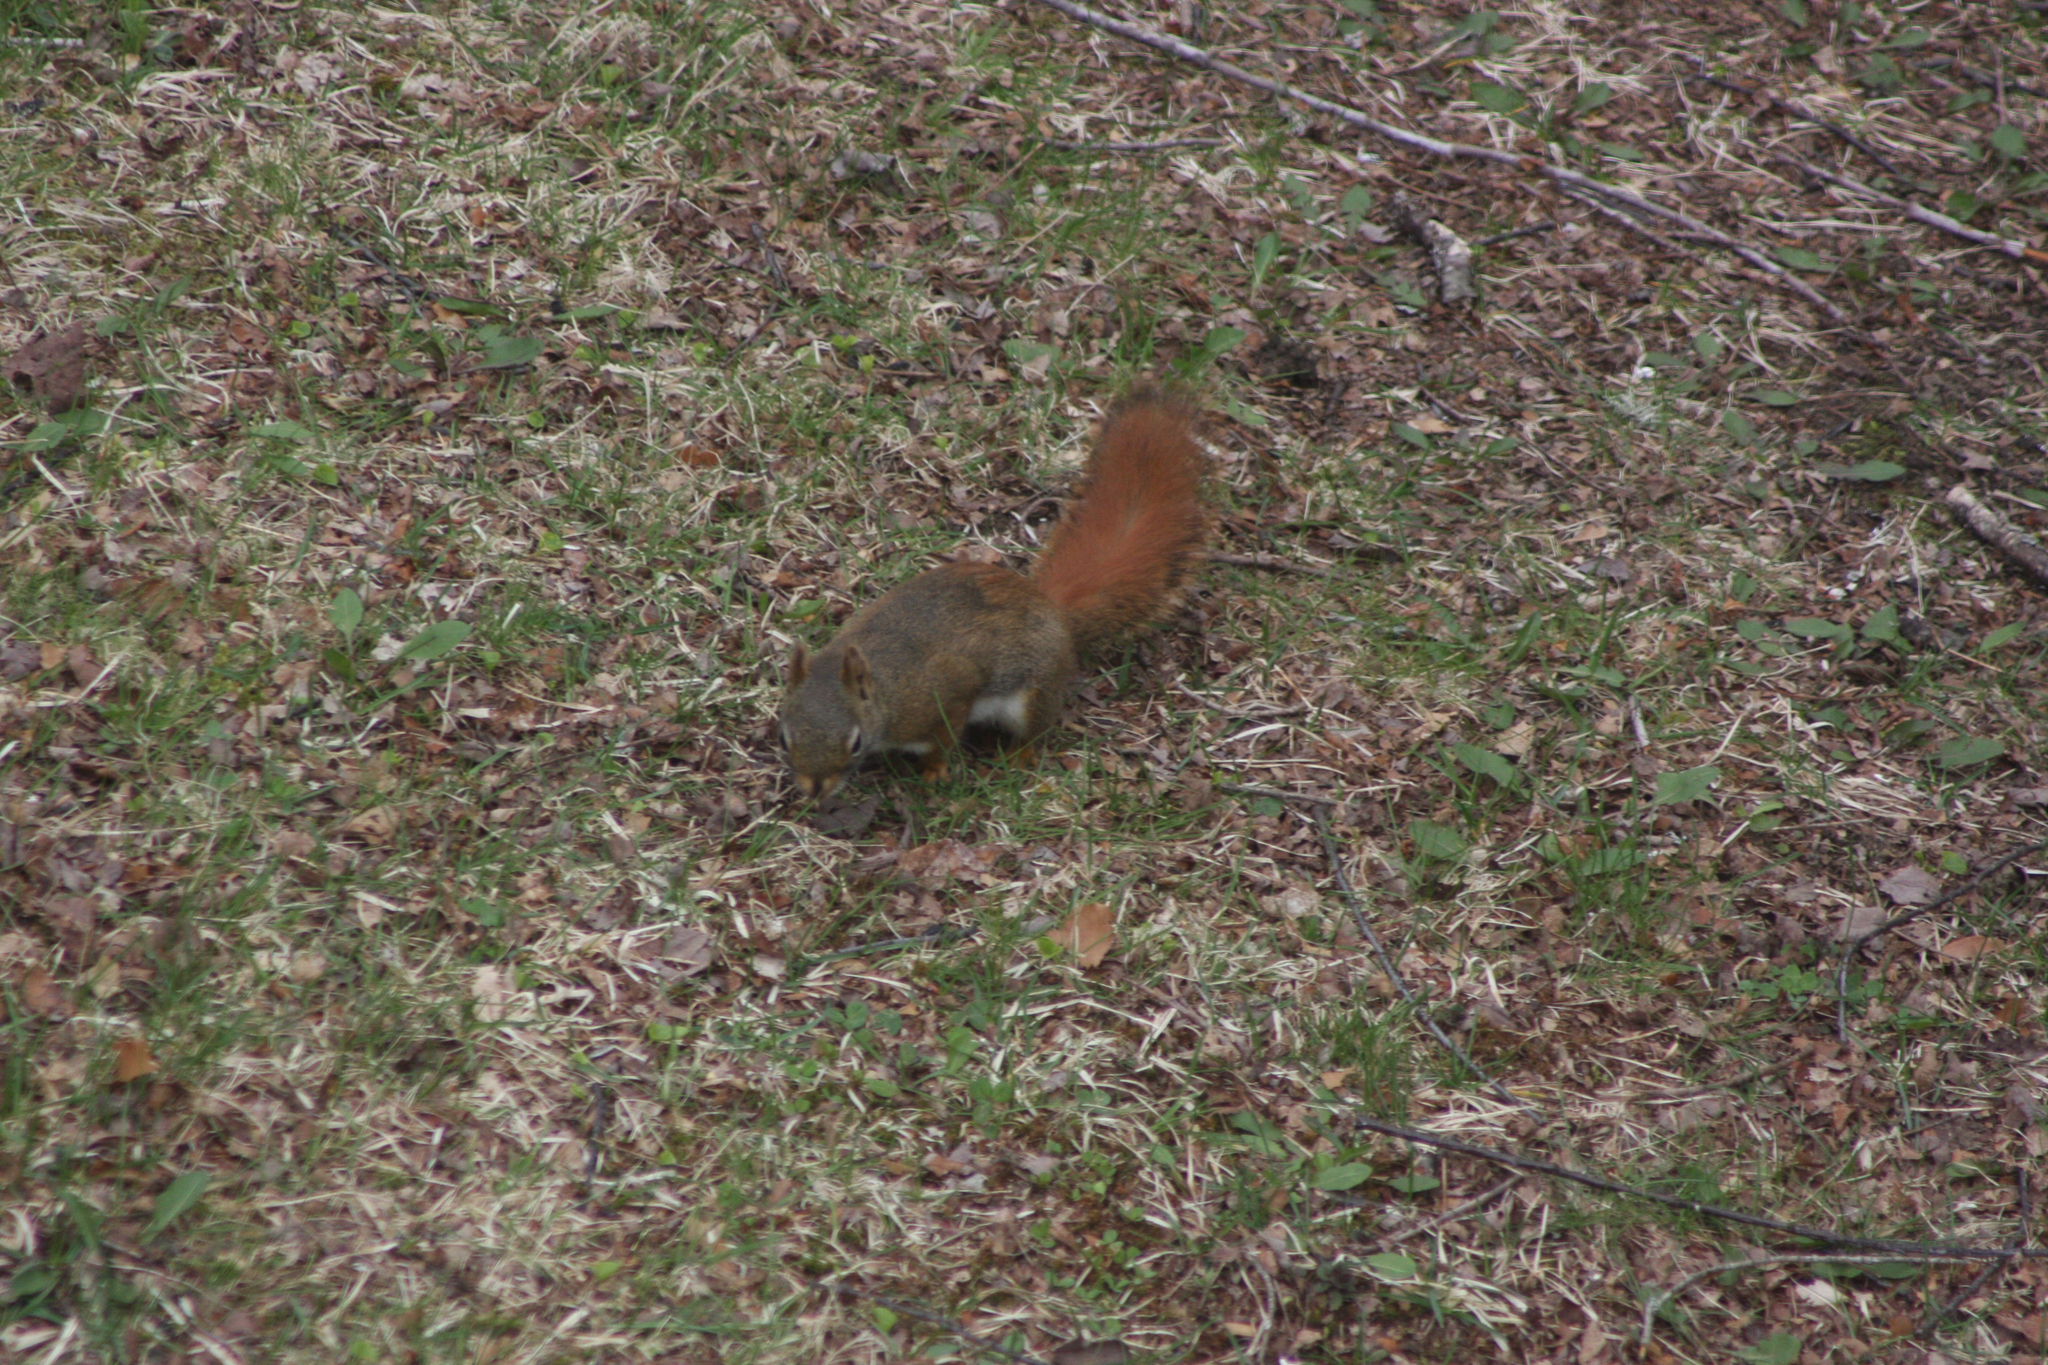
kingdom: Animalia
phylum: Chordata
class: Mammalia
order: Rodentia
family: Sciuridae
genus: Tamiasciurus
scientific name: Tamiasciurus hudsonicus
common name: Red squirrel
